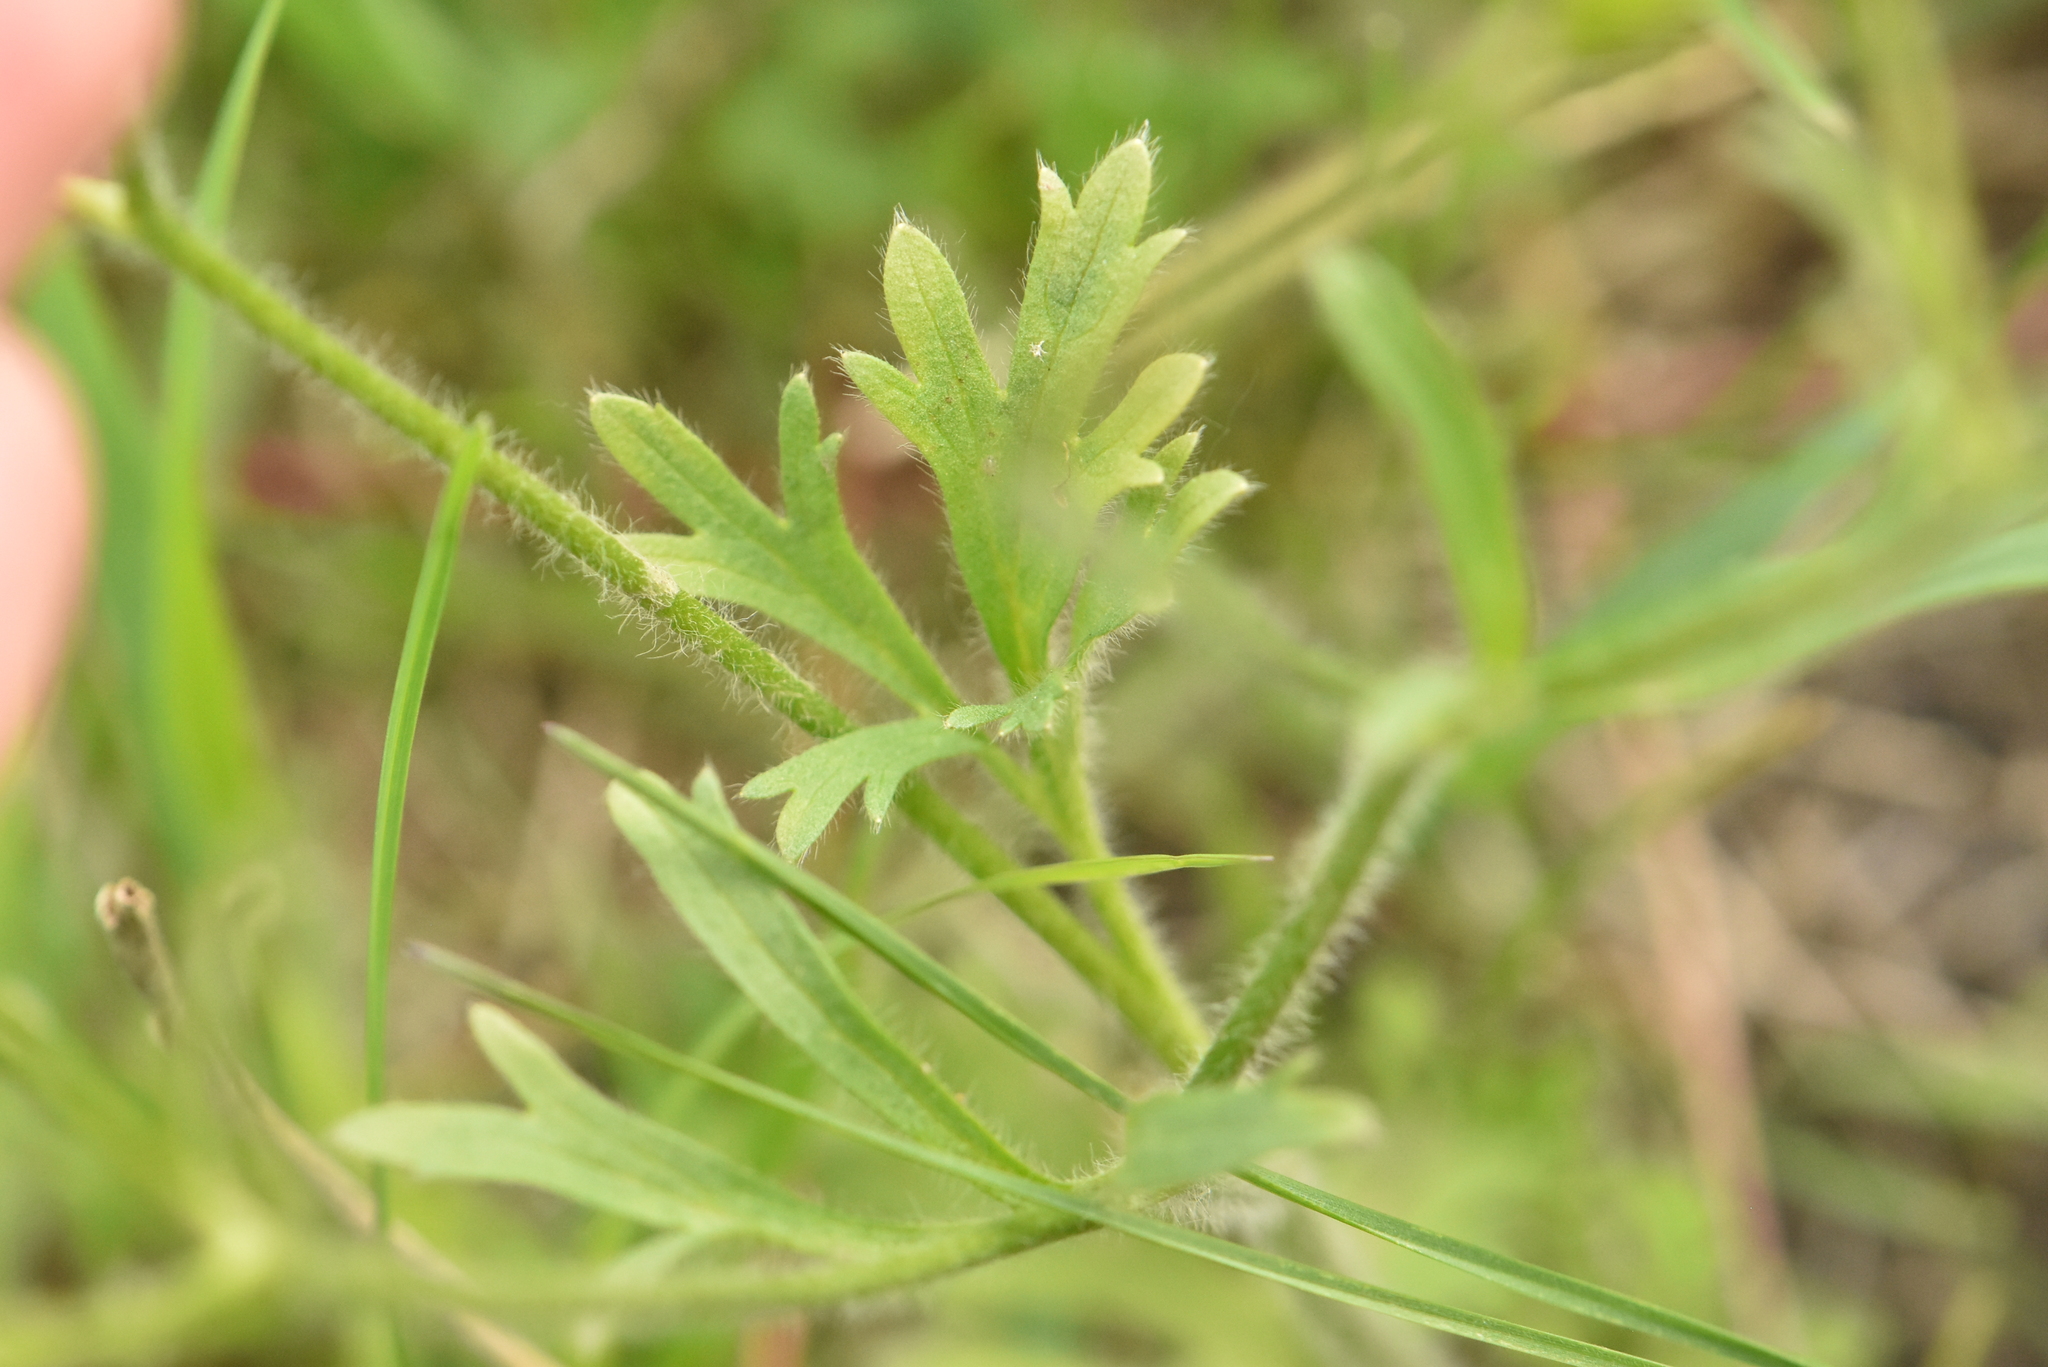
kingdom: Plantae
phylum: Tracheophyta
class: Magnoliopsida
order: Ranunculales
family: Ranunculaceae
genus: Ranunculus
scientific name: Ranunculus oxyspermus
